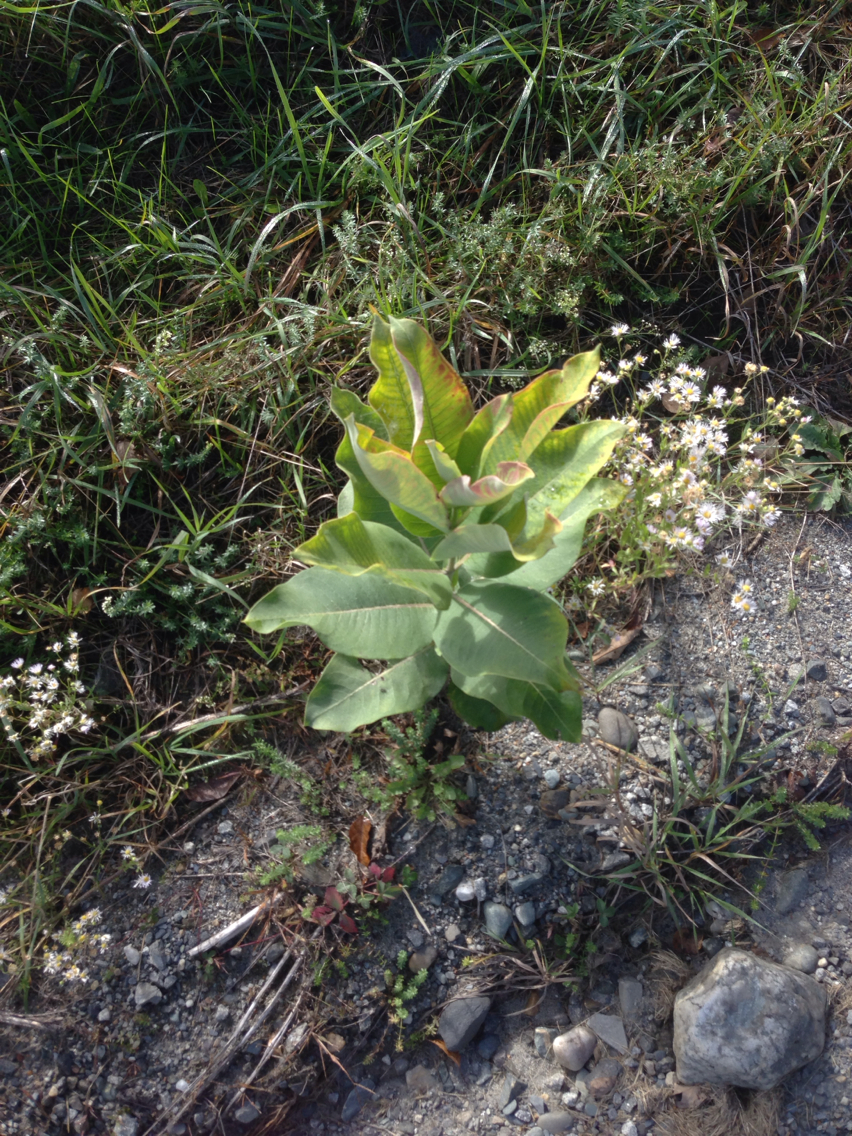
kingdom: Plantae
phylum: Tracheophyta
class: Magnoliopsida
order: Gentianales
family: Apocynaceae
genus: Asclepias
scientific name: Asclepias syriaca
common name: Common milkweed
